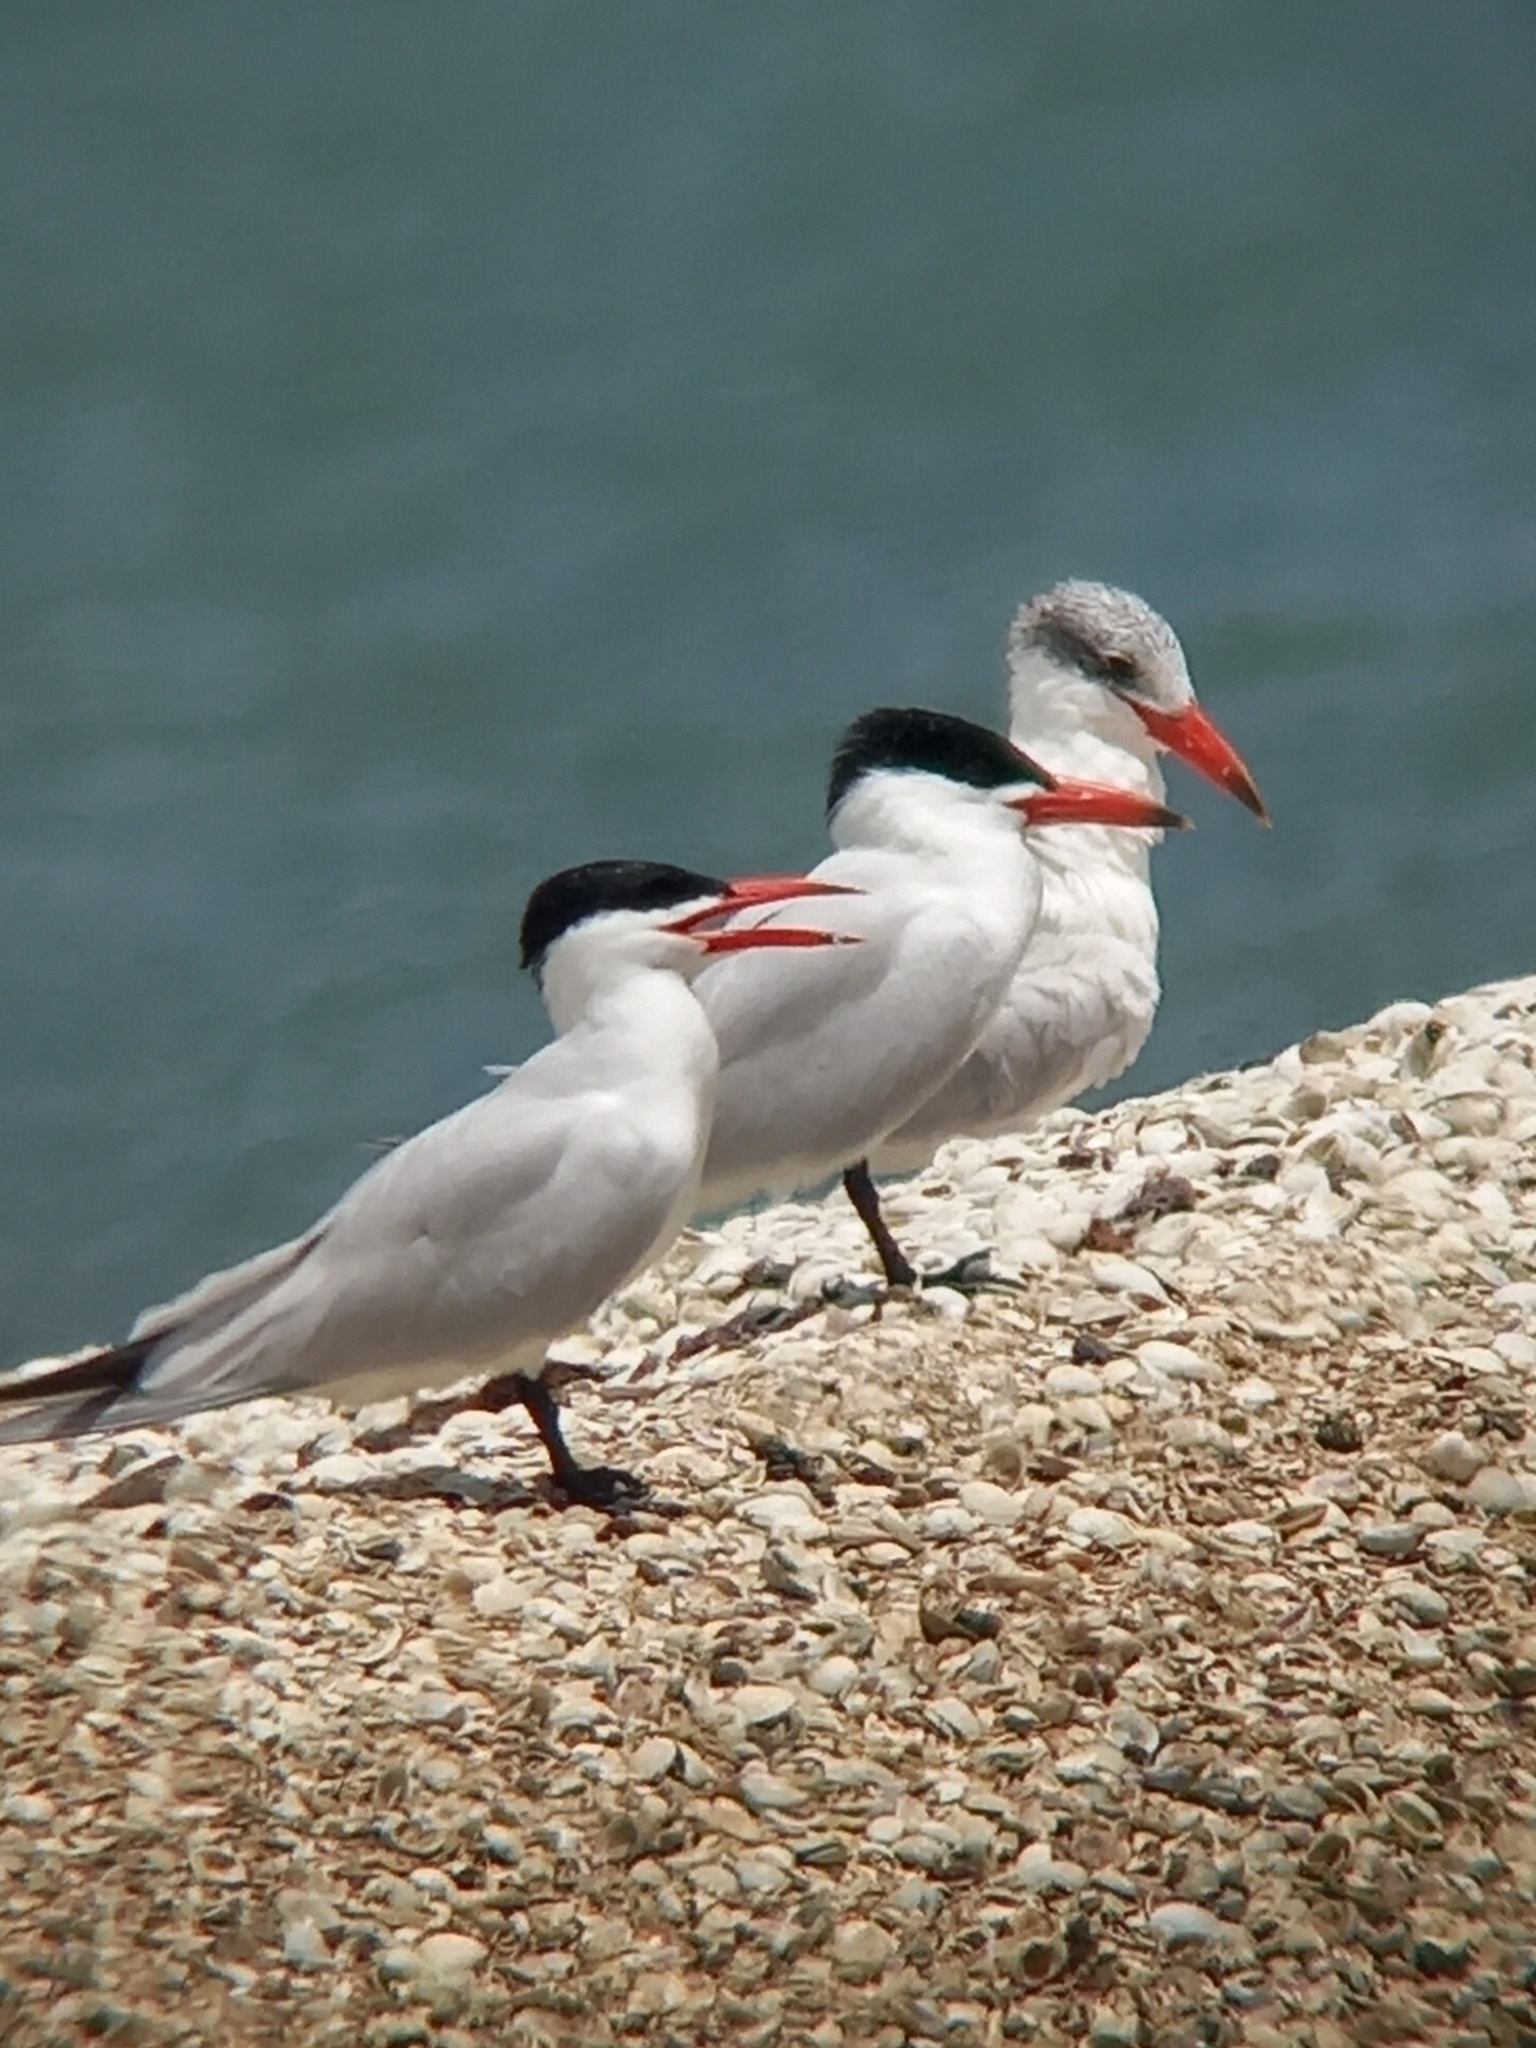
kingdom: Animalia
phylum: Chordata
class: Aves
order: Charadriiformes
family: Laridae
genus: Hydroprogne
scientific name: Hydroprogne caspia
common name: Caspian tern
